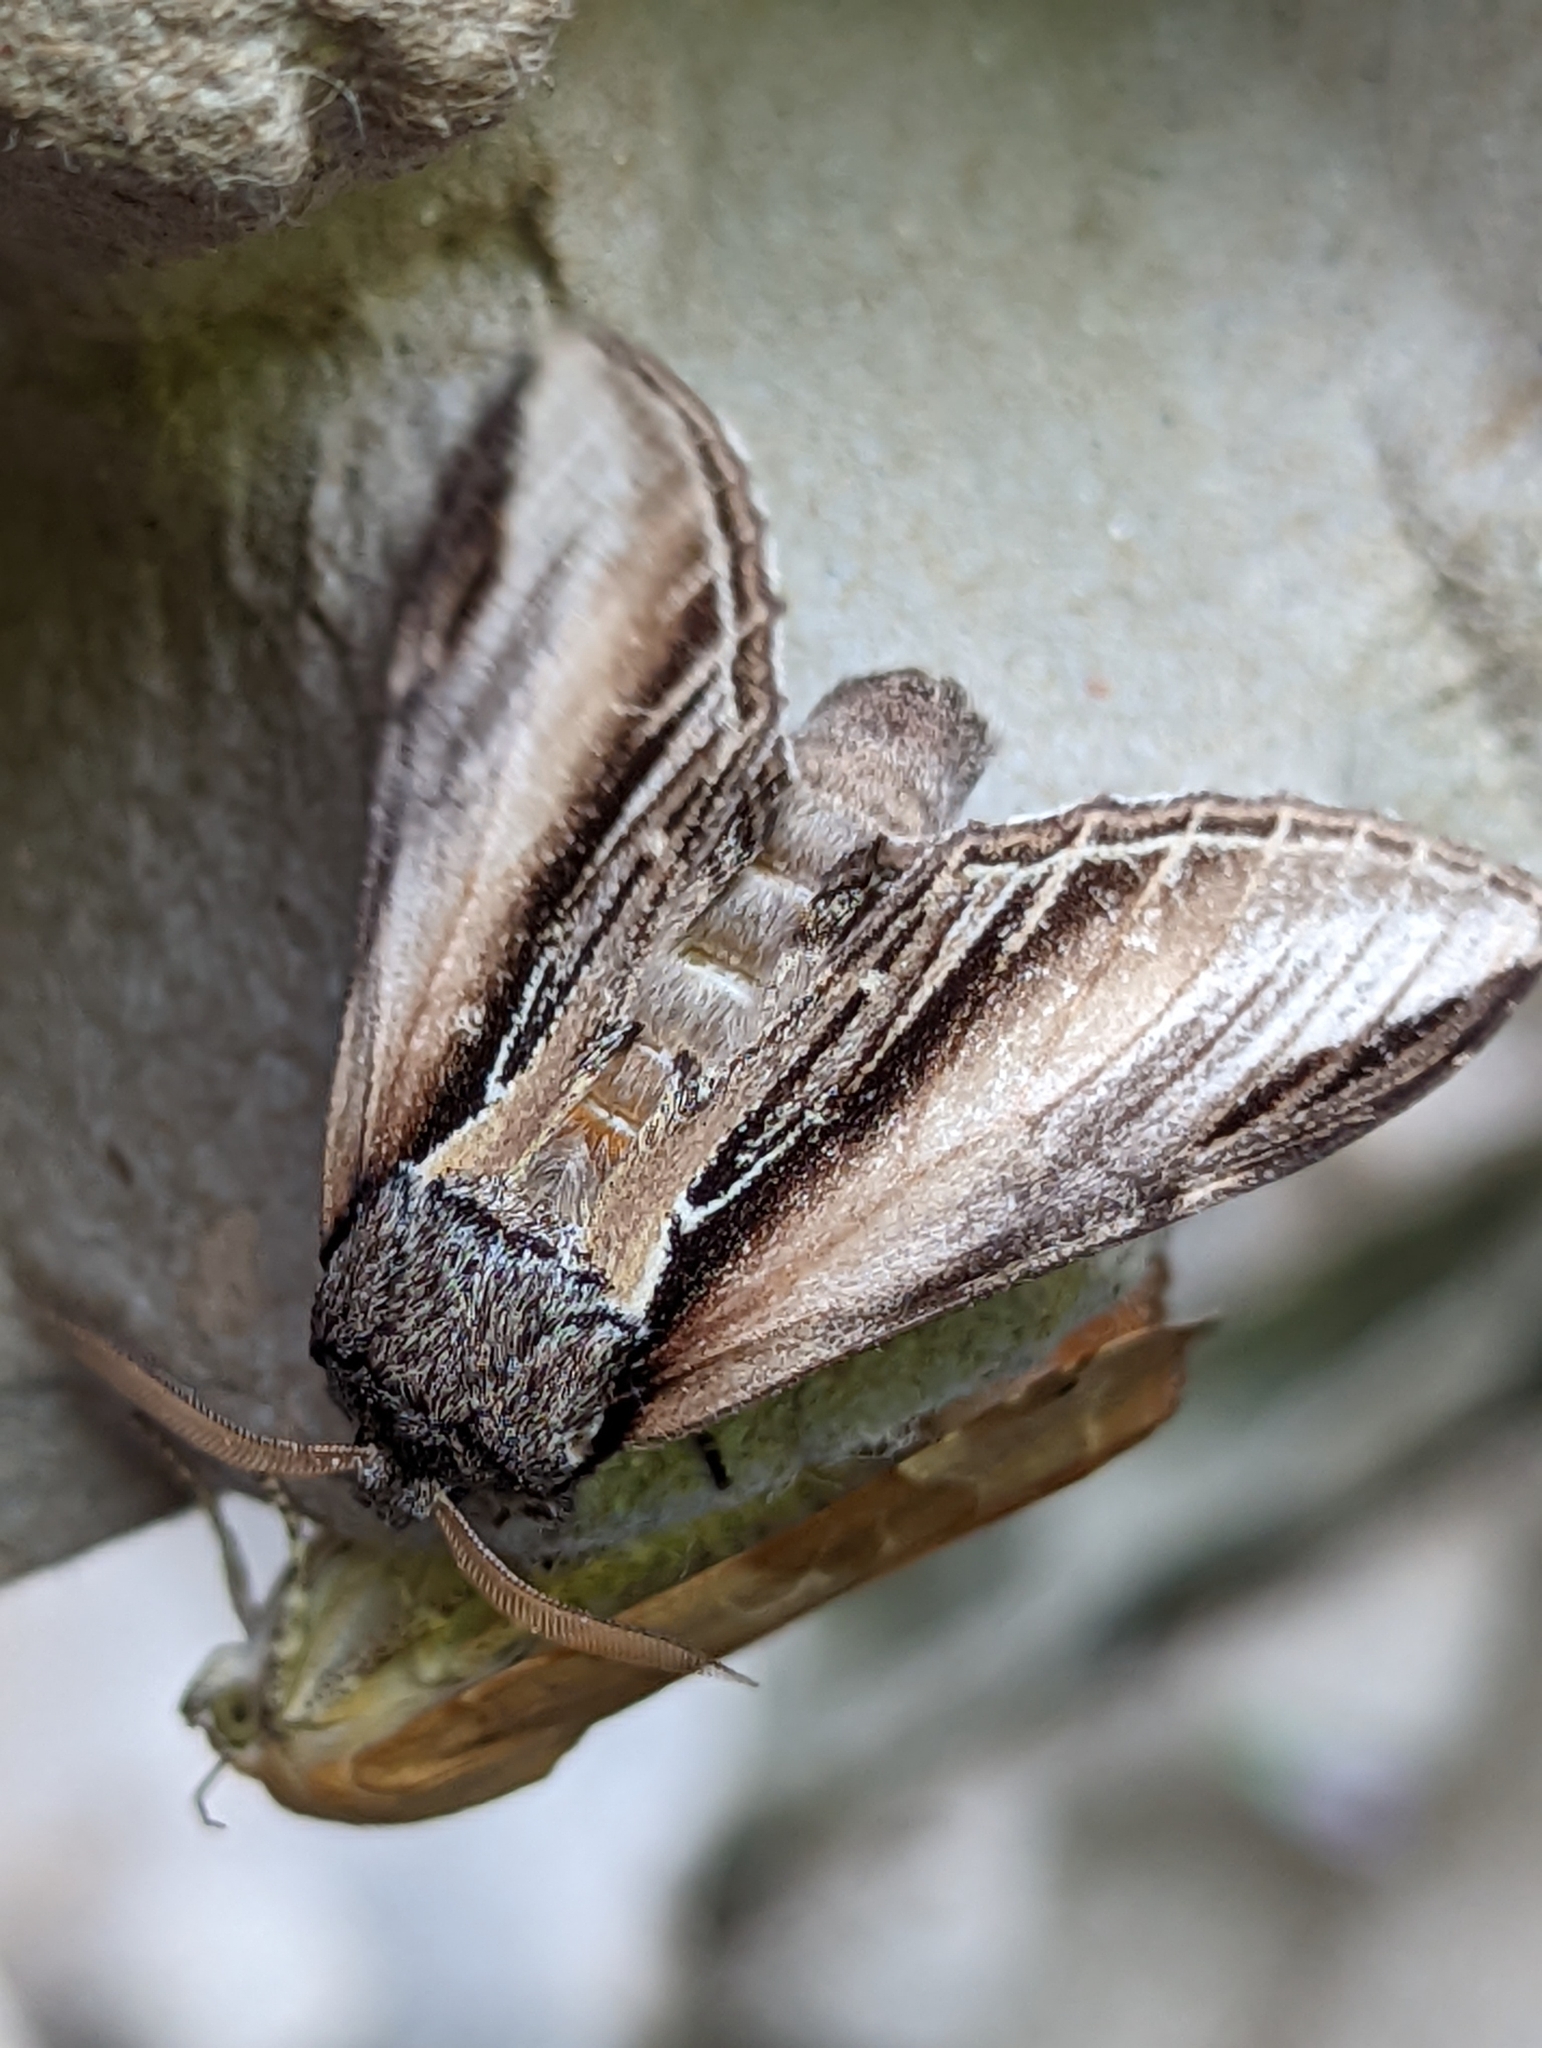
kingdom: Animalia
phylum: Arthropoda
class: Insecta
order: Lepidoptera
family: Notodontidae
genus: Pheosia
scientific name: Pheosia tremula
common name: Swallow prominent
